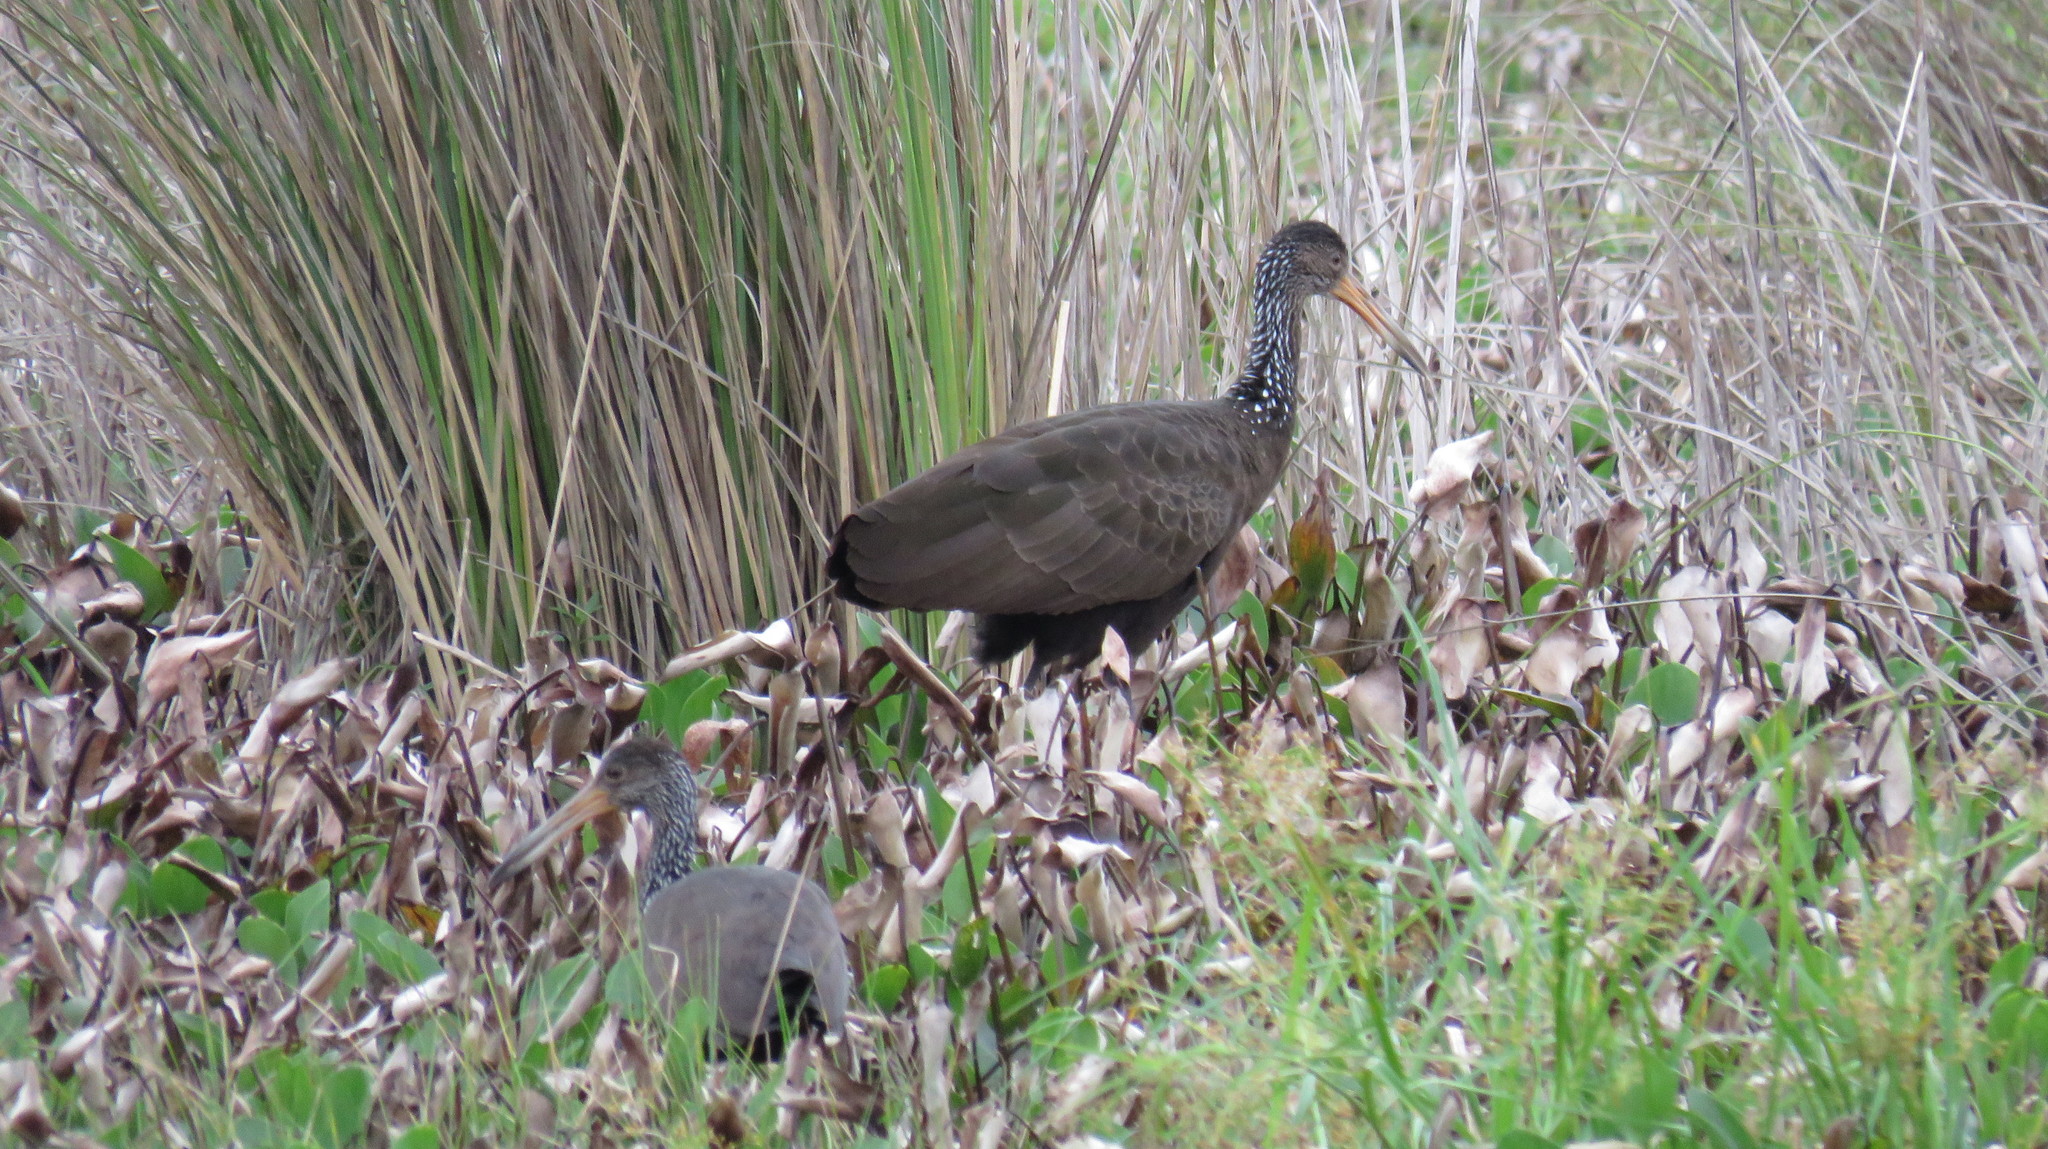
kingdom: Animalia
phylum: Chordata
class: Aves
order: Gruiformes
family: Aramidae
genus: Aramus
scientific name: Aramus guarauna
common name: Limpkin
